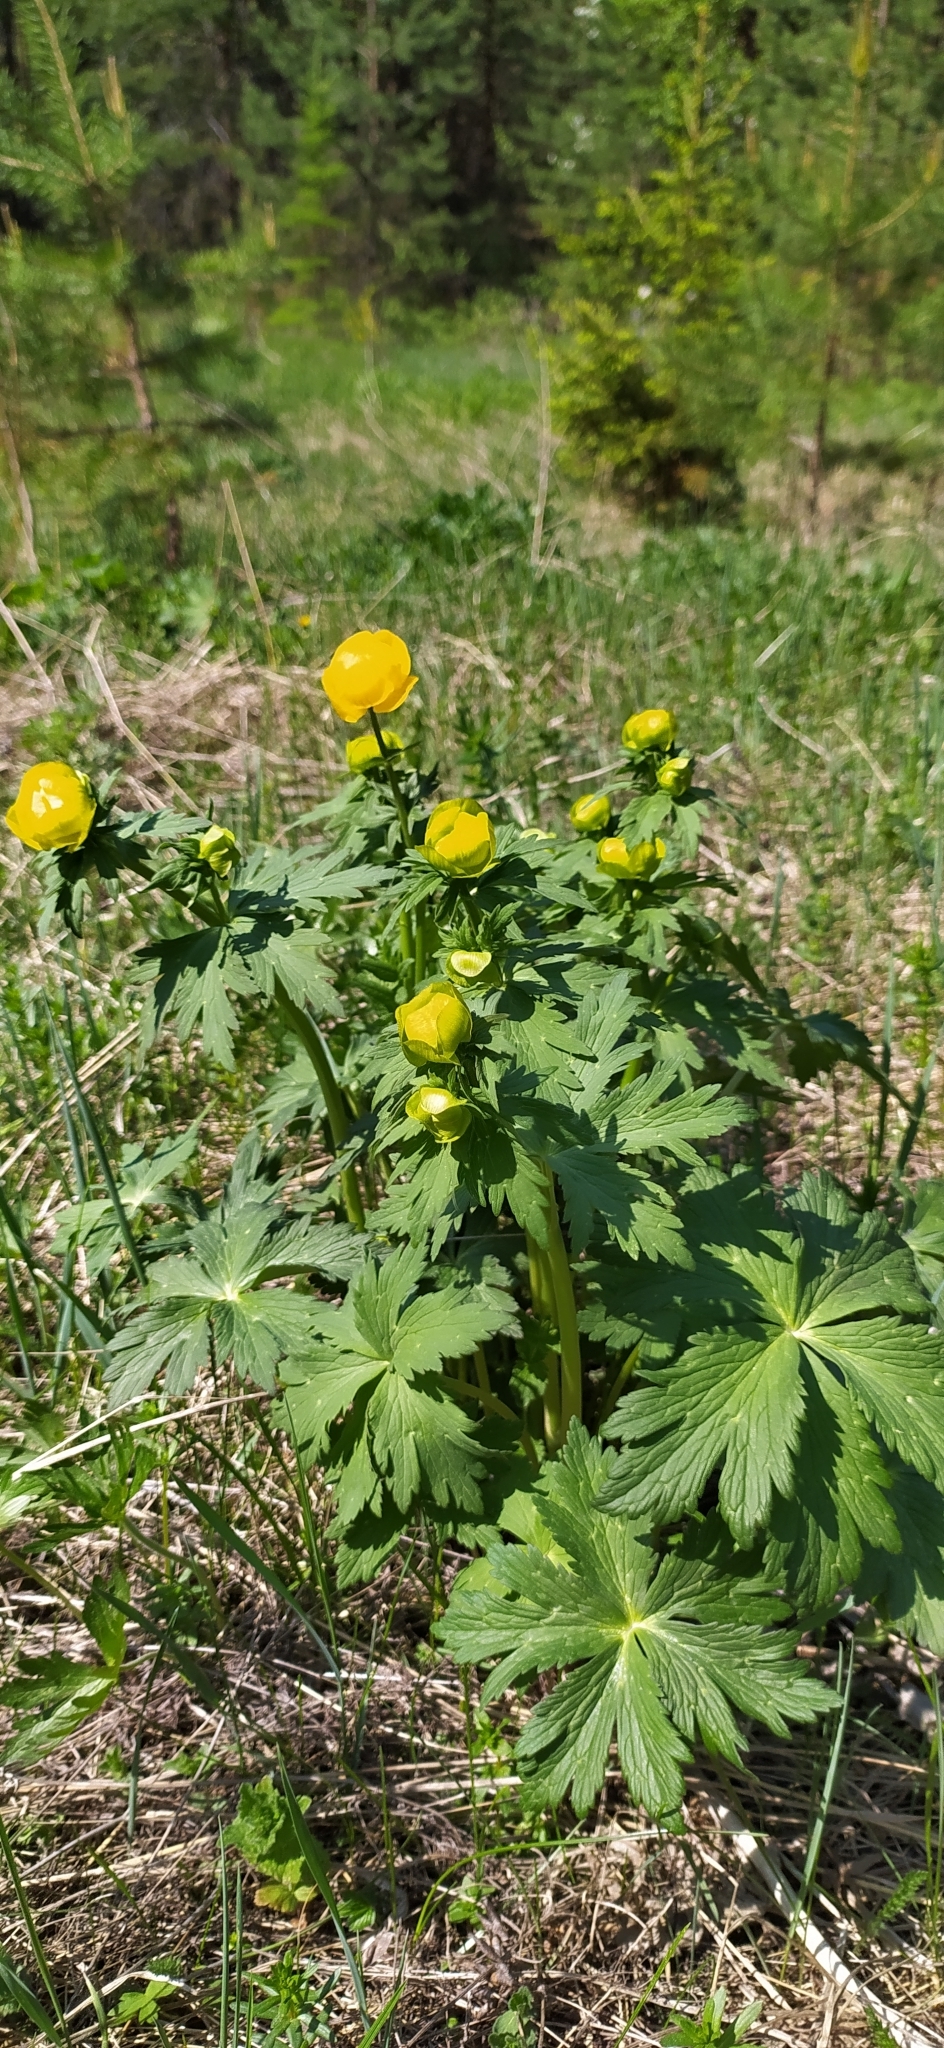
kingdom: Plantae
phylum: Tracheophyta
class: Magnoliopsida
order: Ranunculales
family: Ranunculaceae
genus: Trollius
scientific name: Trollius europaeus
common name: European globeflower
